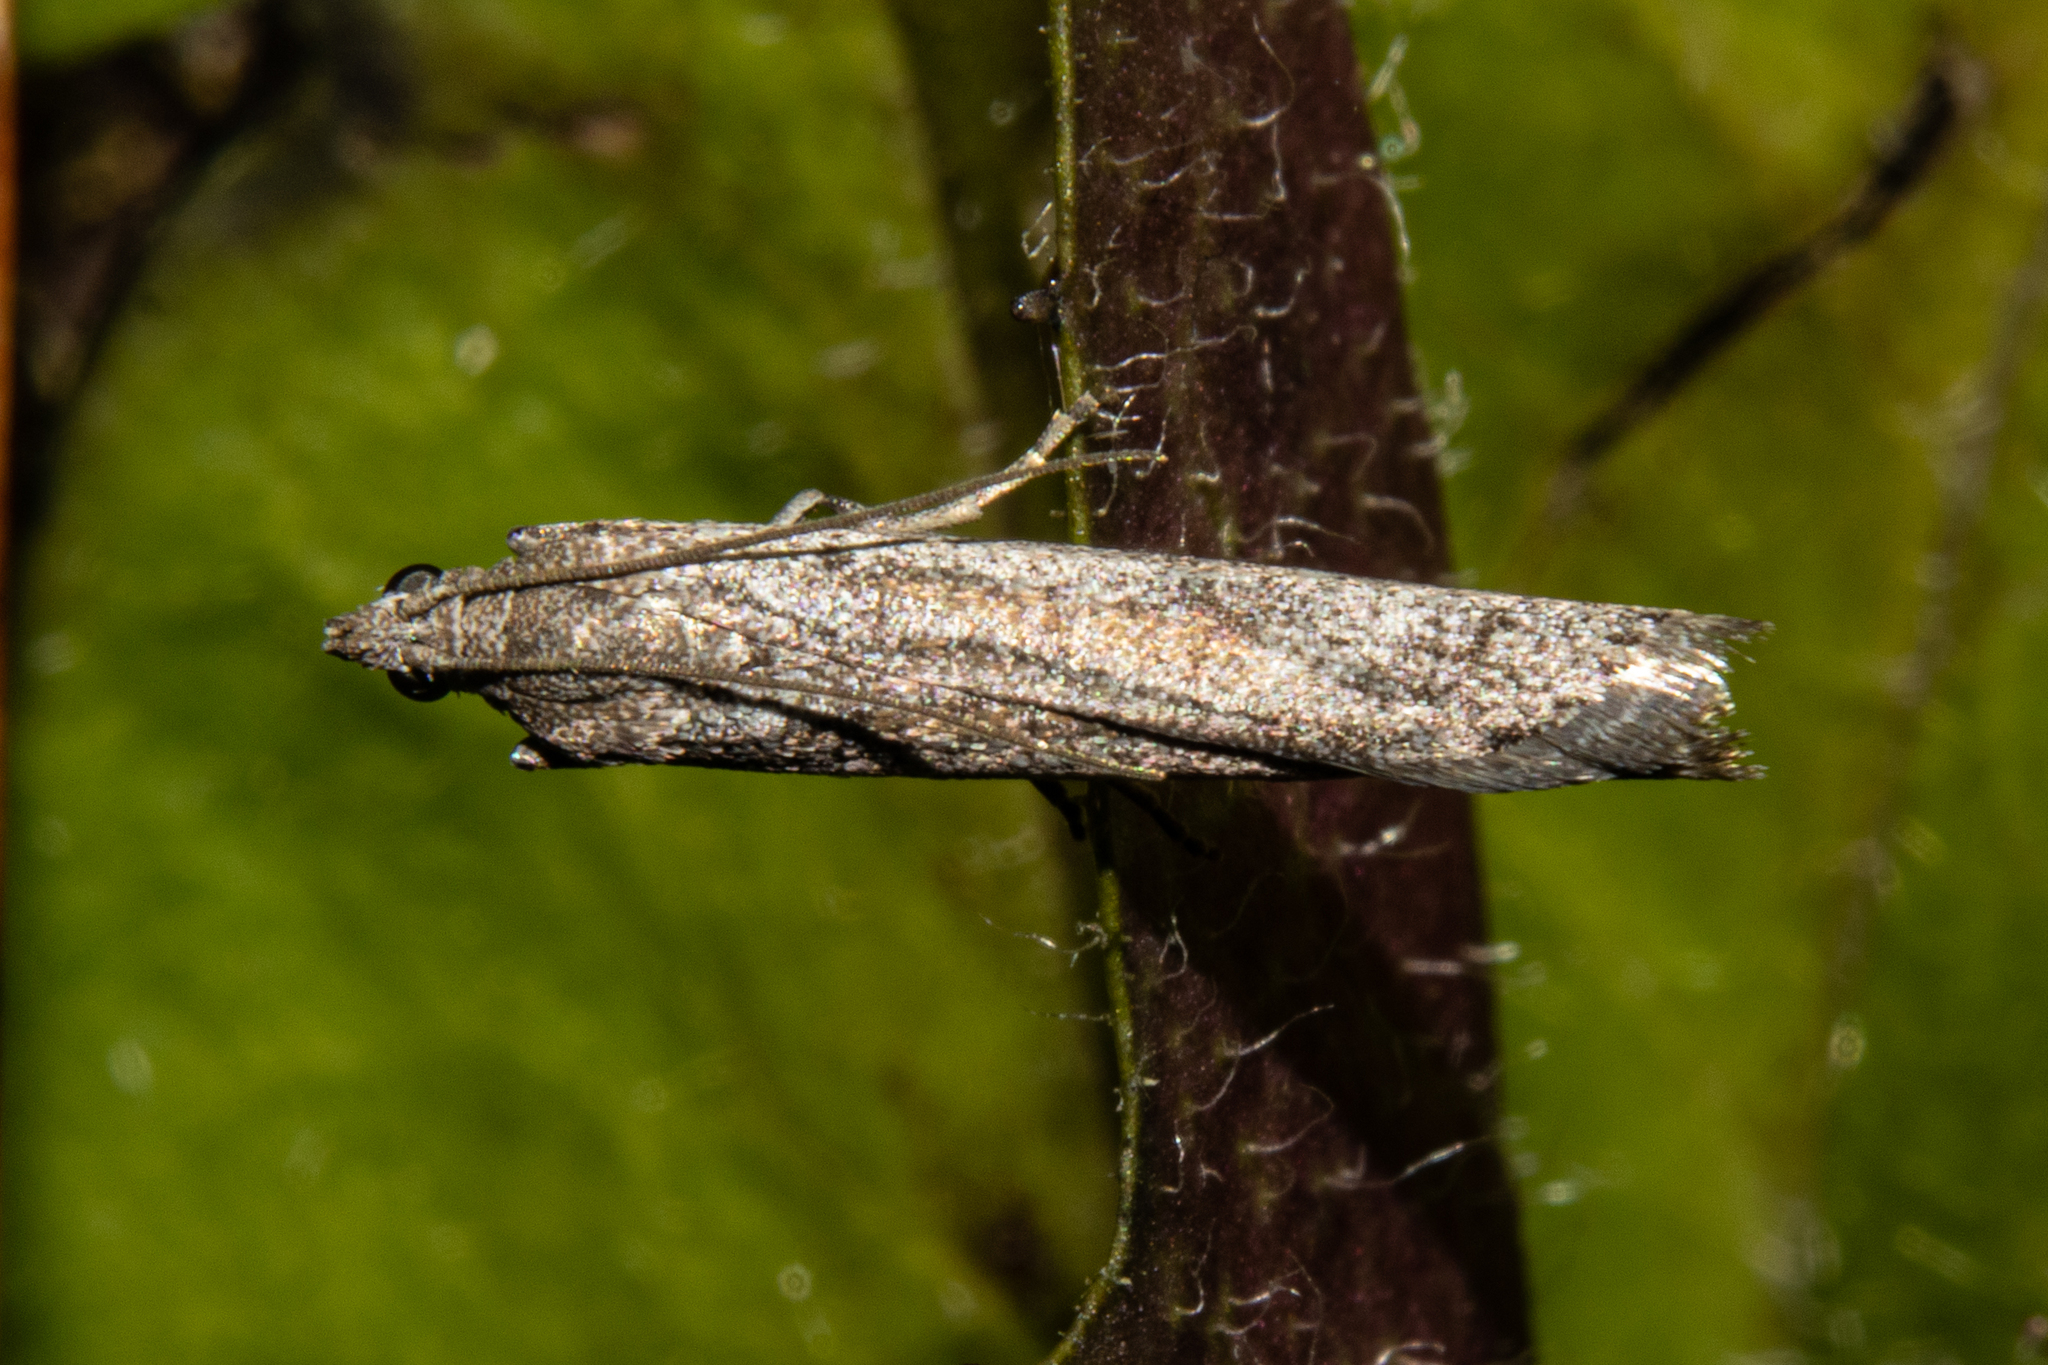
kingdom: Animalia
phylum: Arthropoda
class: Insecta
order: Lepidoptera
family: Pyralidae
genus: Homoeosoma
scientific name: Homoeosoma anaspila
